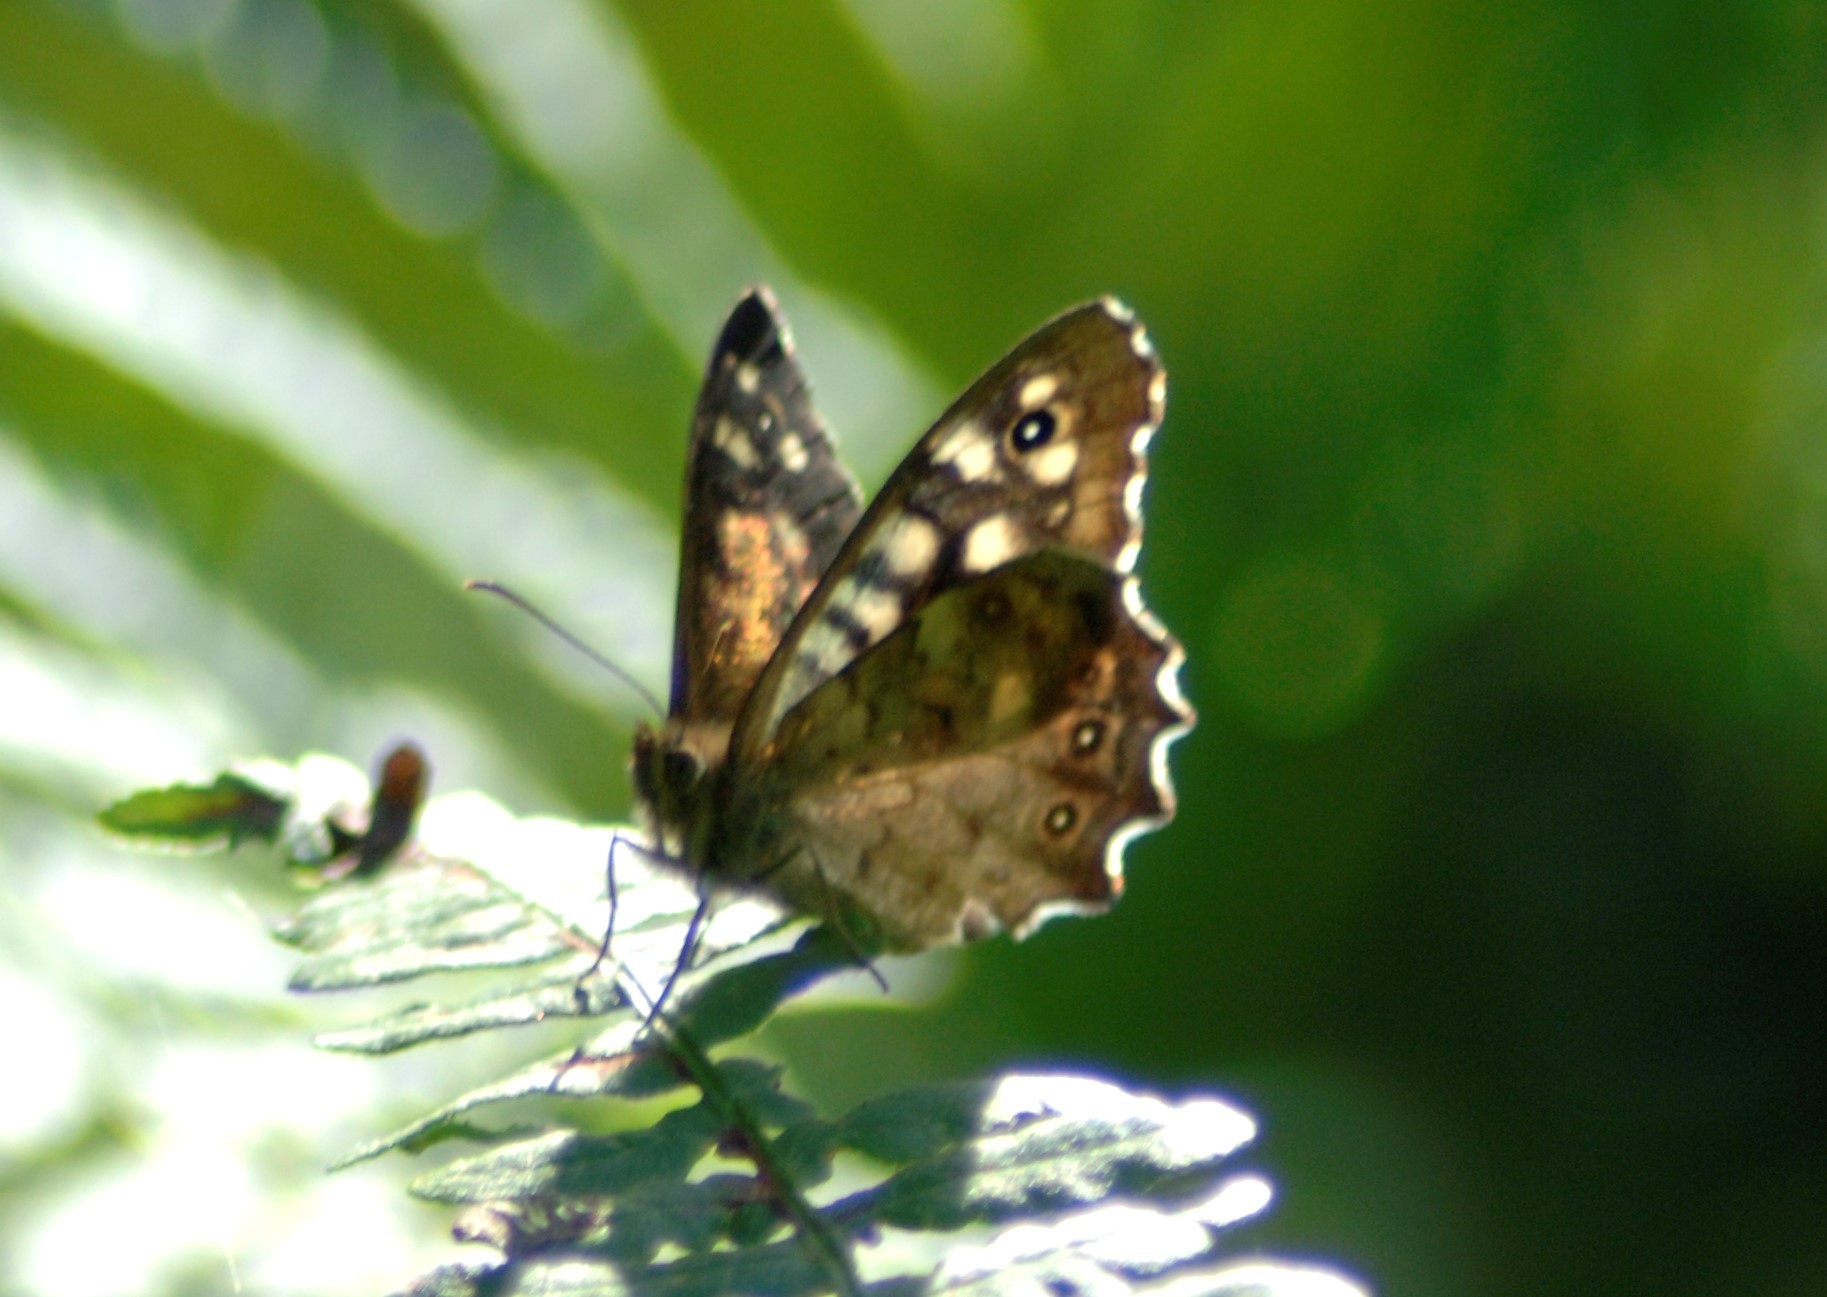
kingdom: Animalia
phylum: Arthropoda
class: Insecta
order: Lepidoptera
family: Nymphalidae
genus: Pararge
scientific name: Pararge aegeria
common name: Speckled wood
